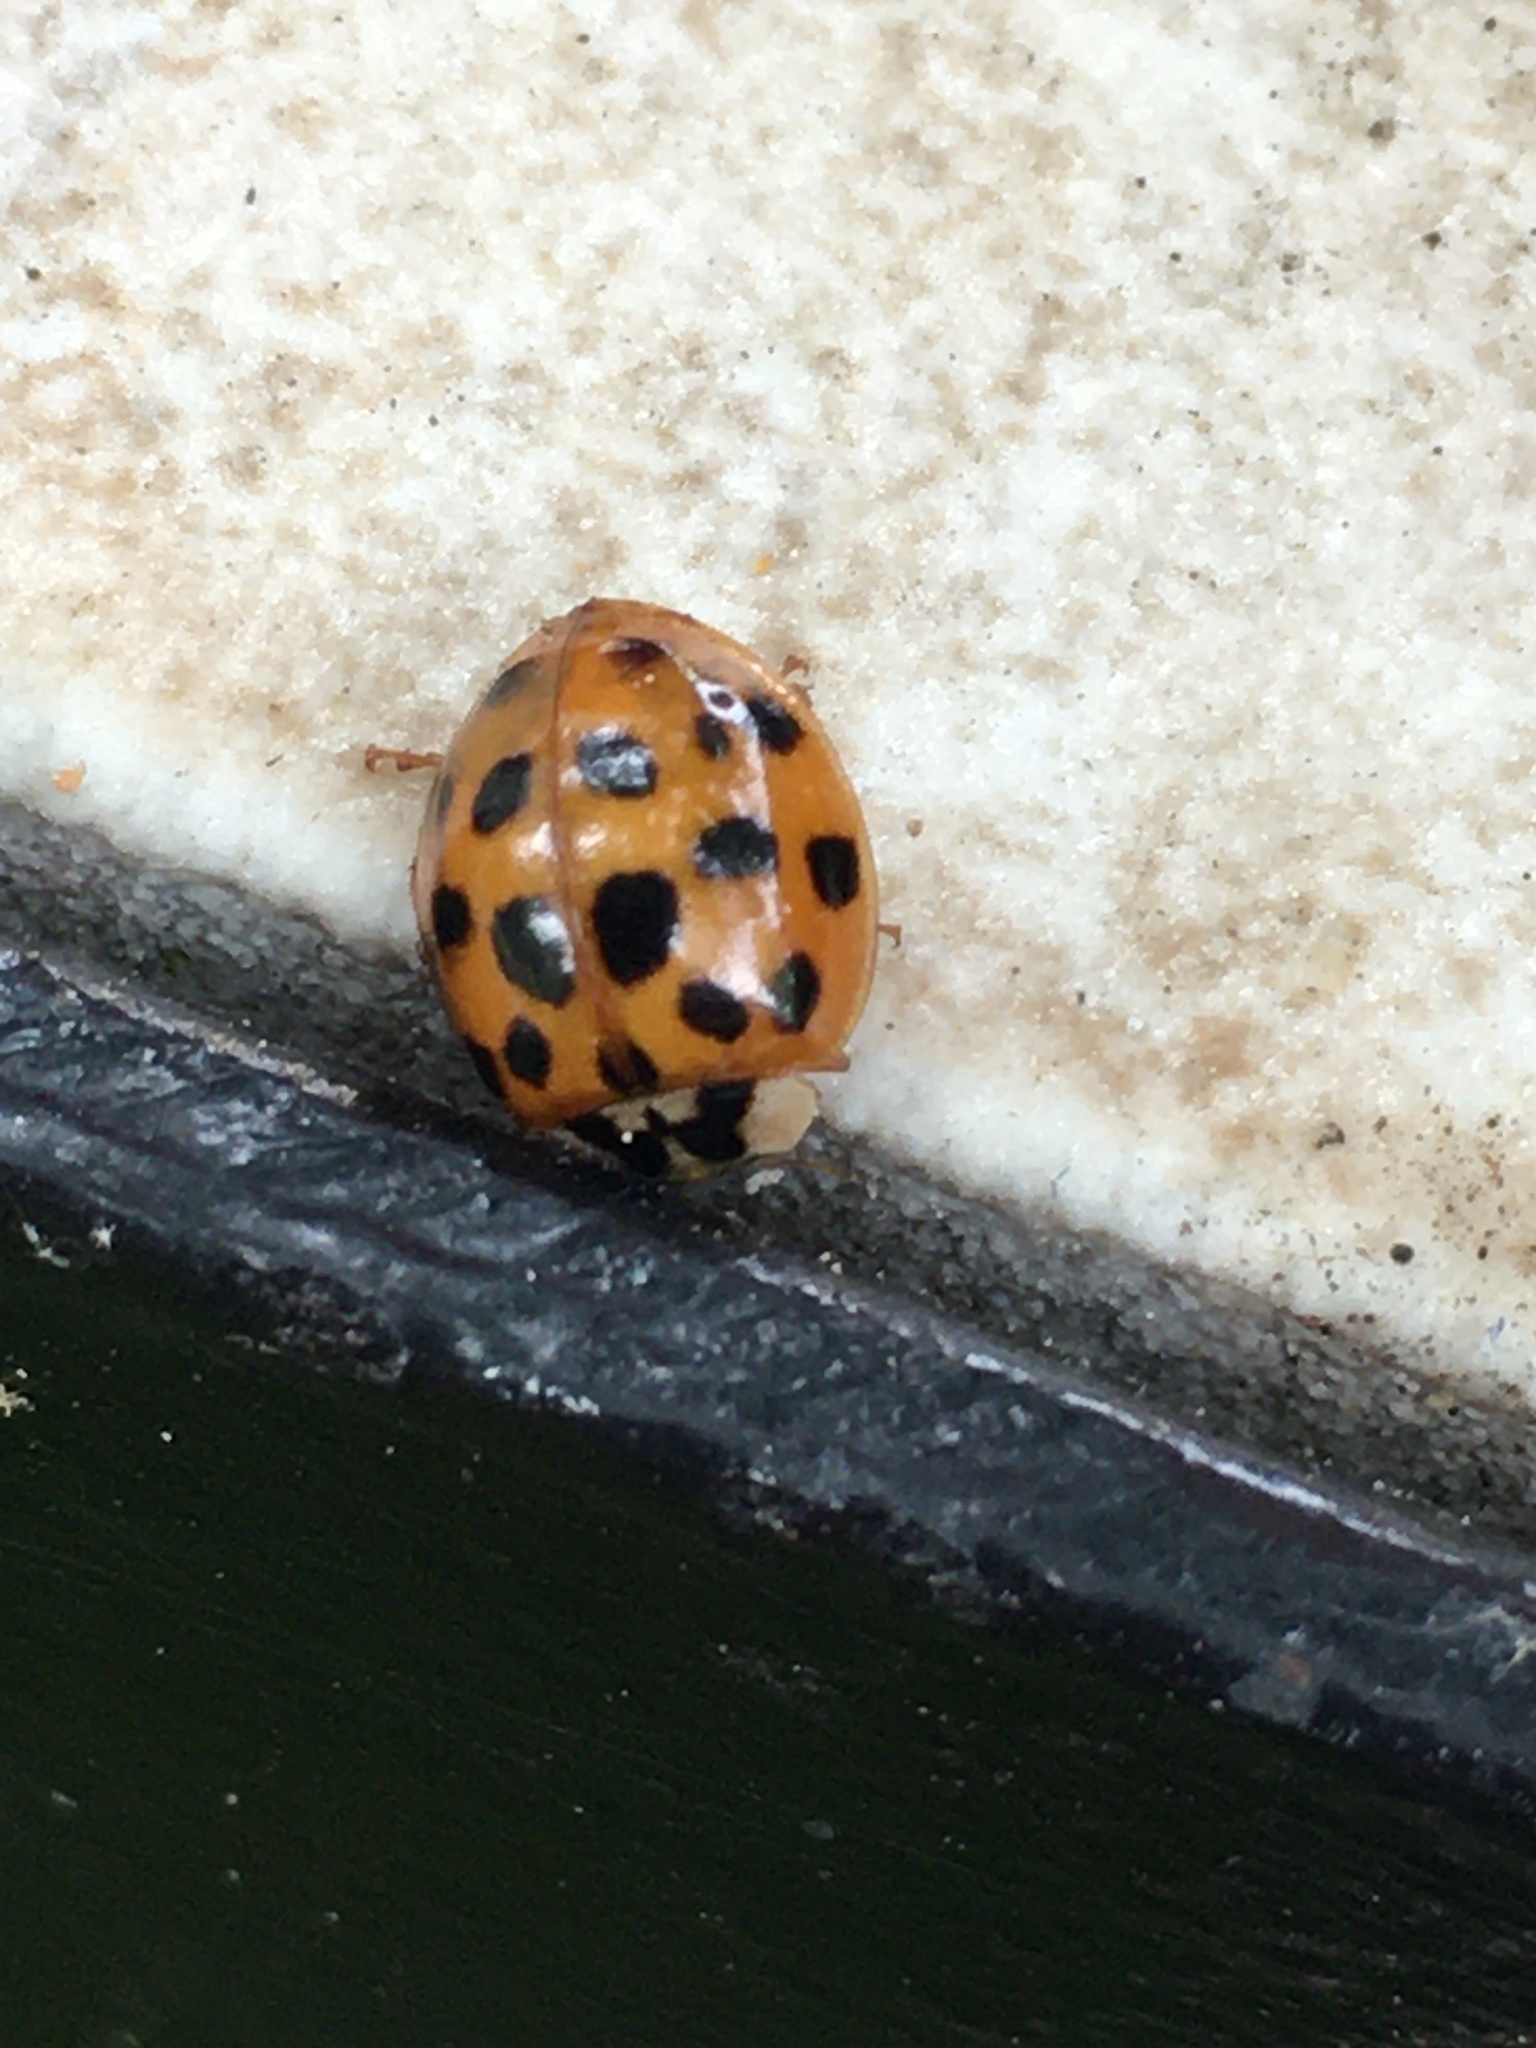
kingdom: Animalia
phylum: Arthropoda
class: Insecta
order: Coleoptera
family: Coccinellidae
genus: Harmonia
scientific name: Harmonia axyridis
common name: Harlequin ladybird
